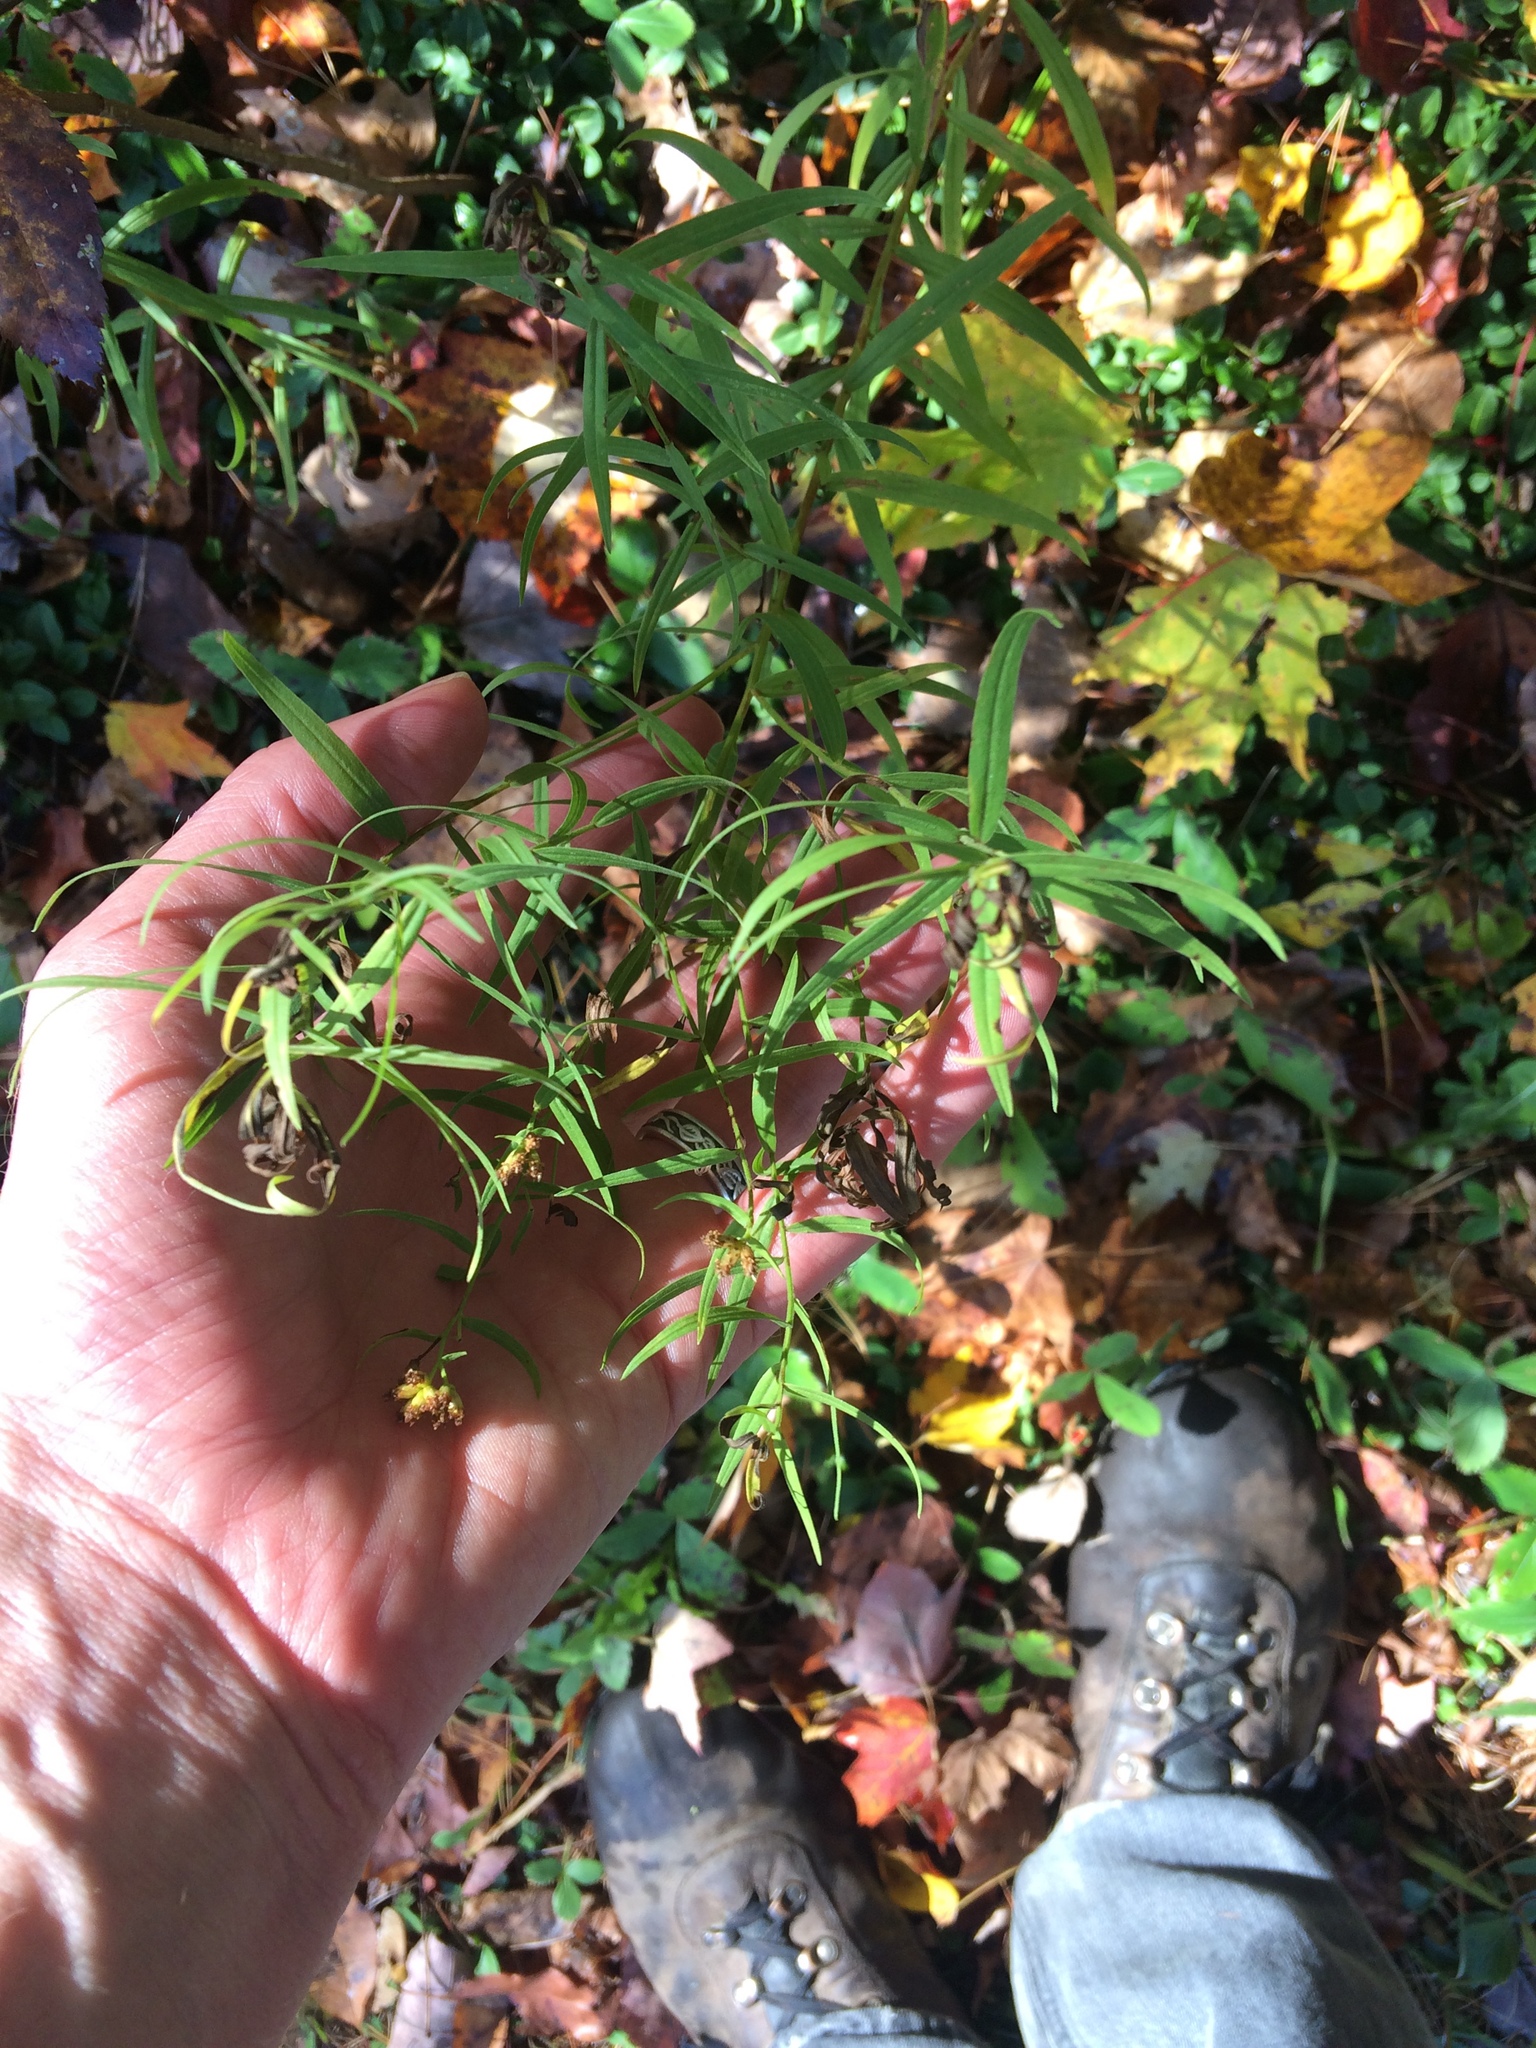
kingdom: Plantae
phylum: Tracheophyta
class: Magnoliopsida
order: Asterales
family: Asteraceae
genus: Euthamia
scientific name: Euthamia graminifolia
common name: Common goldentop
